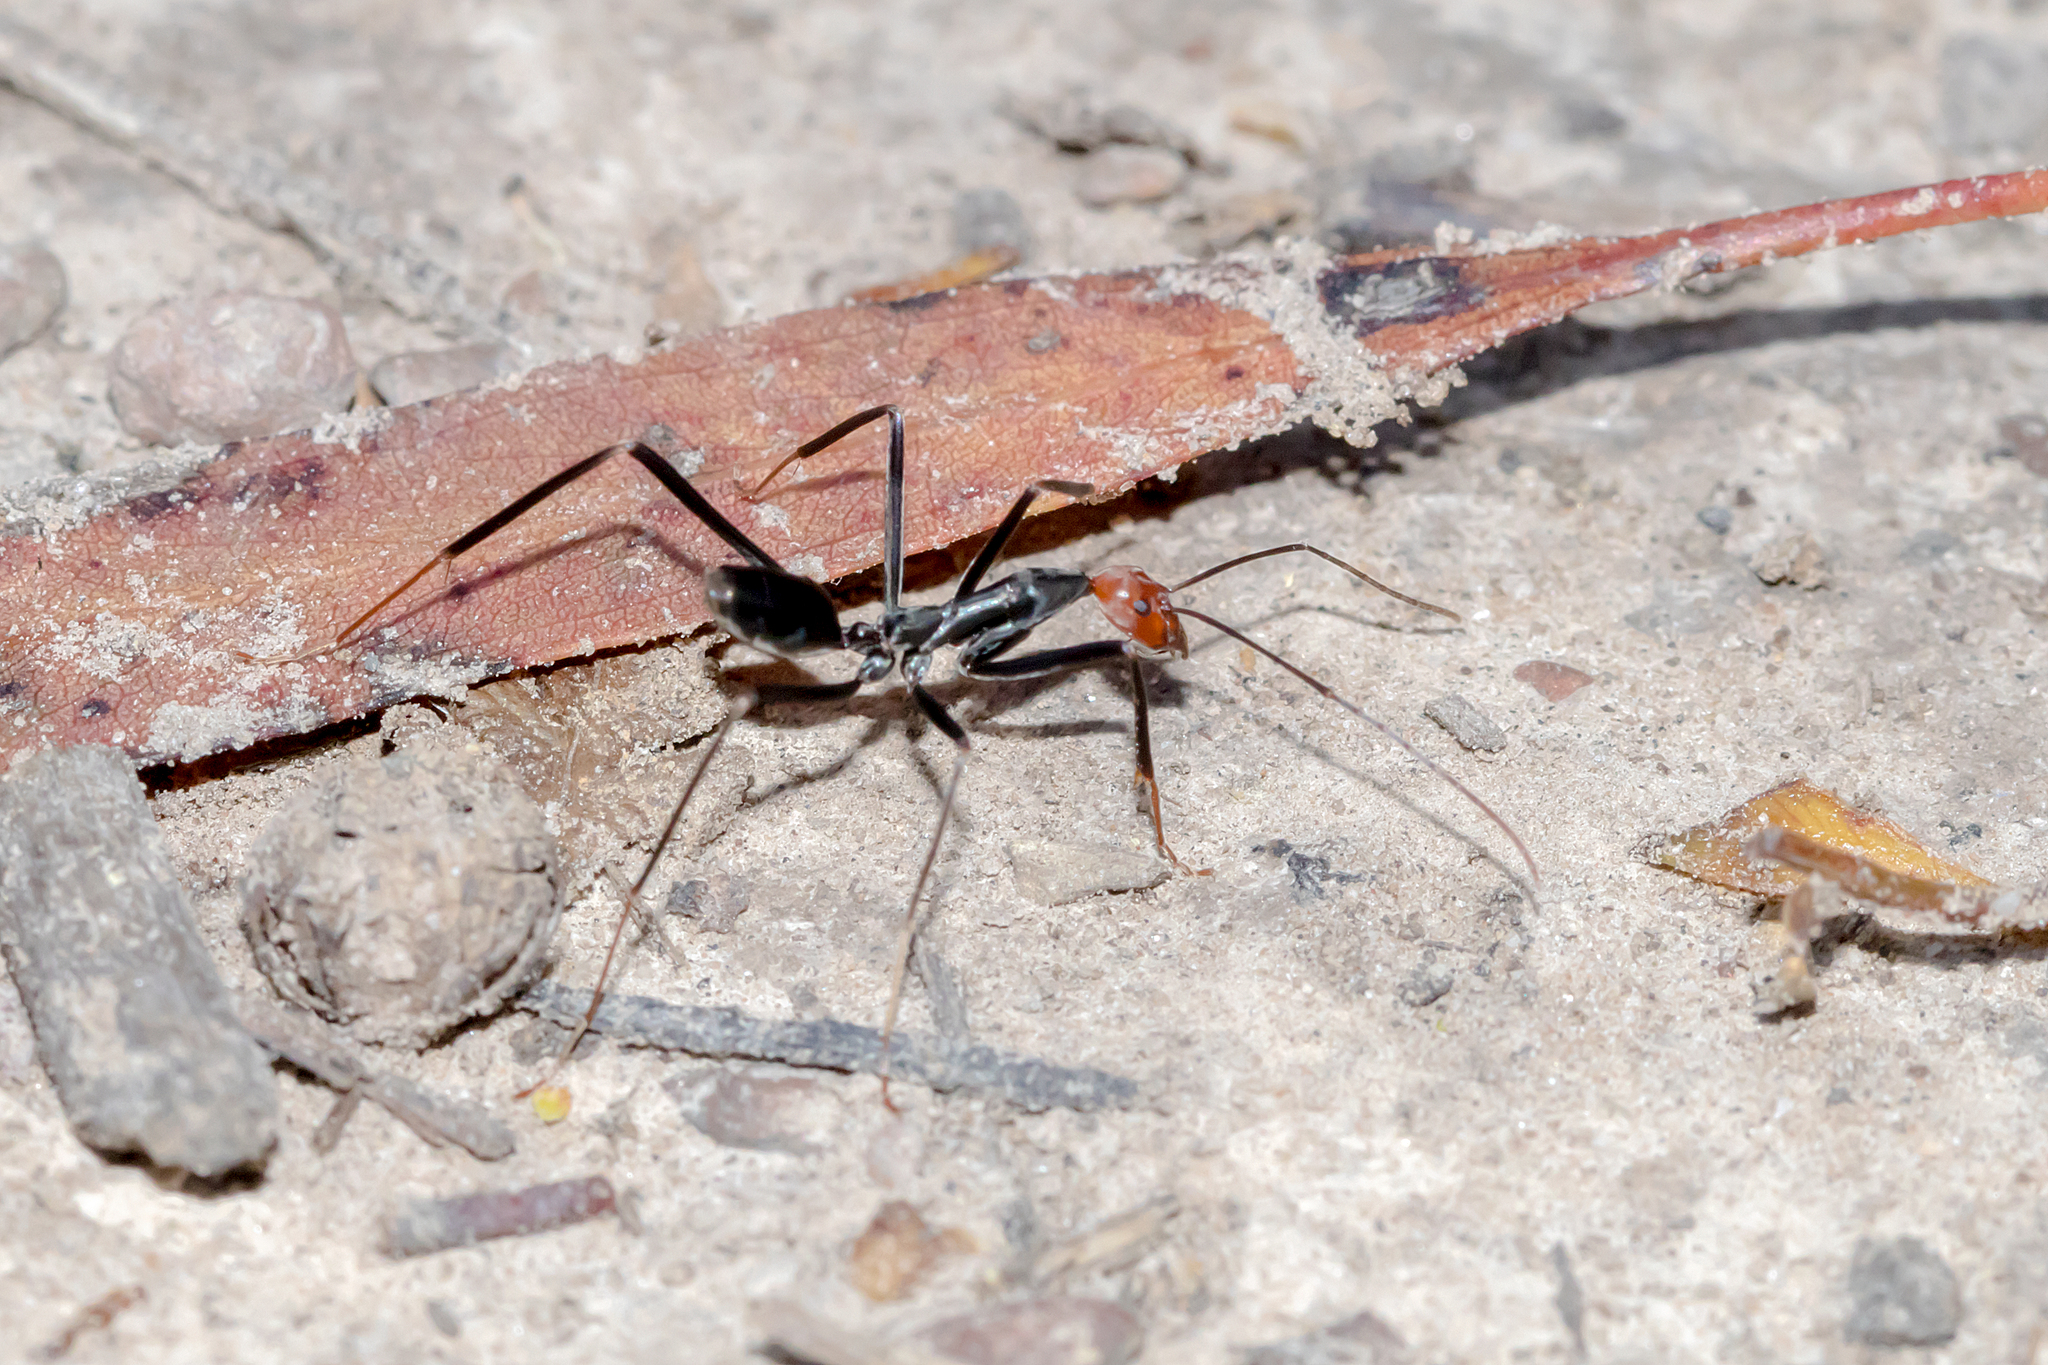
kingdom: Animalia
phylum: Arthropoda
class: Insecta
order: Hymenoptera
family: Formicidae
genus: Leptomyrmex
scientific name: Leptomyrmex erythrocephalus
